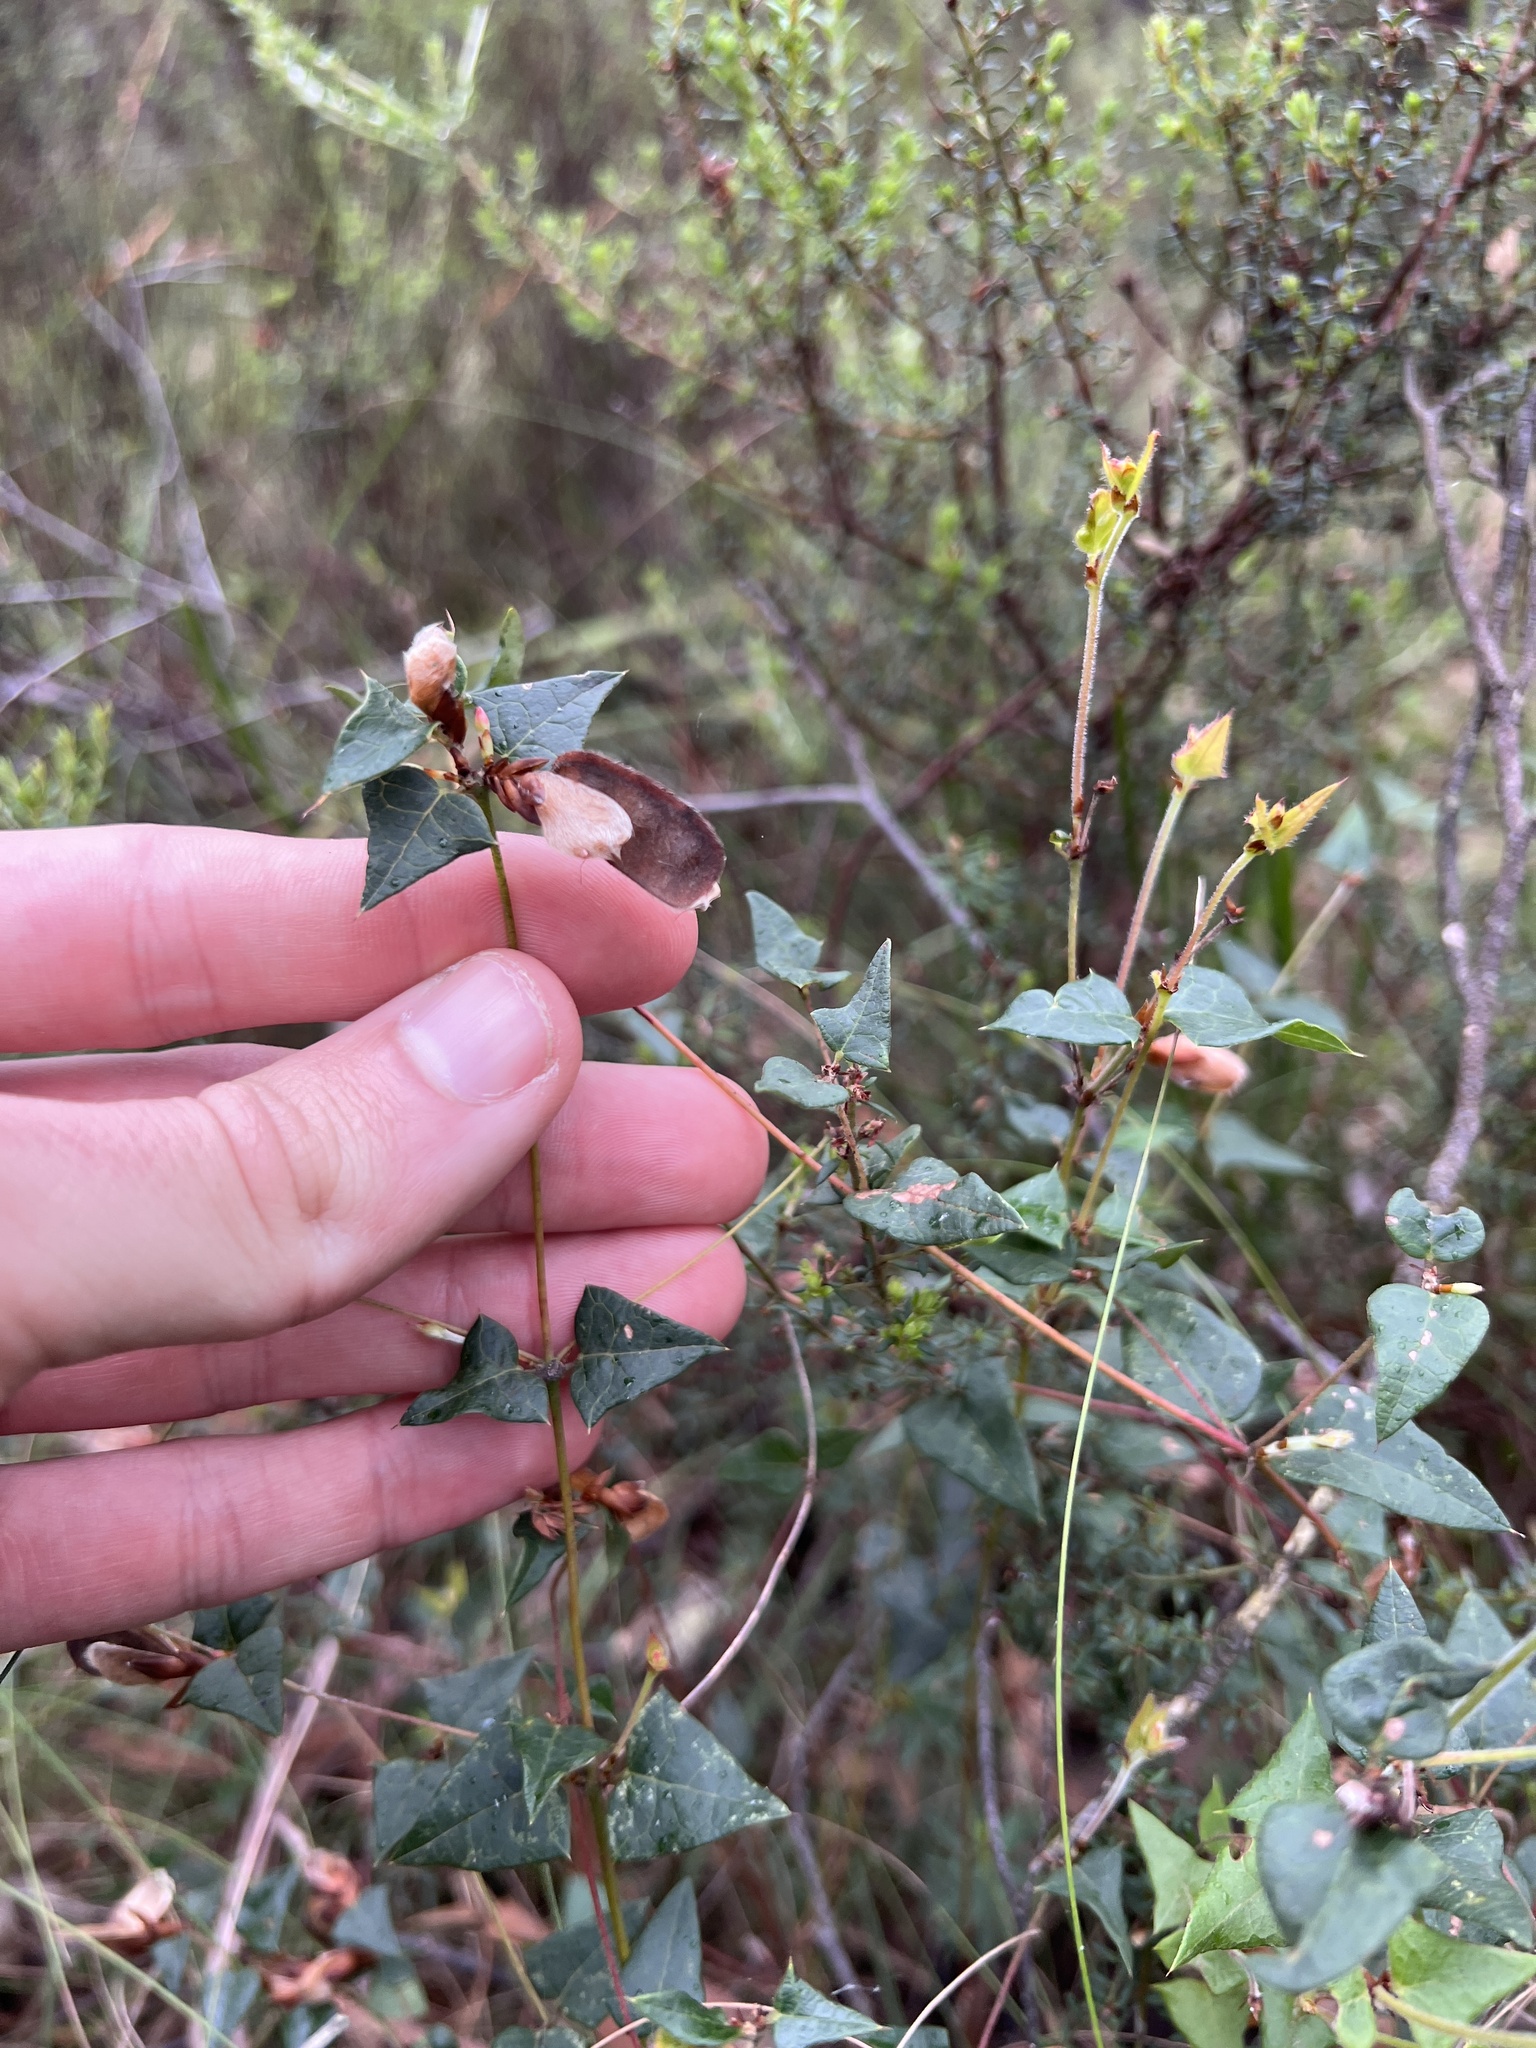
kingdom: Plantae
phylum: Tracheophyta
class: Magnoliopsida
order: Fabales
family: Fabaceae
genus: Platylobium
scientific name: Platylobium obtusangulum
